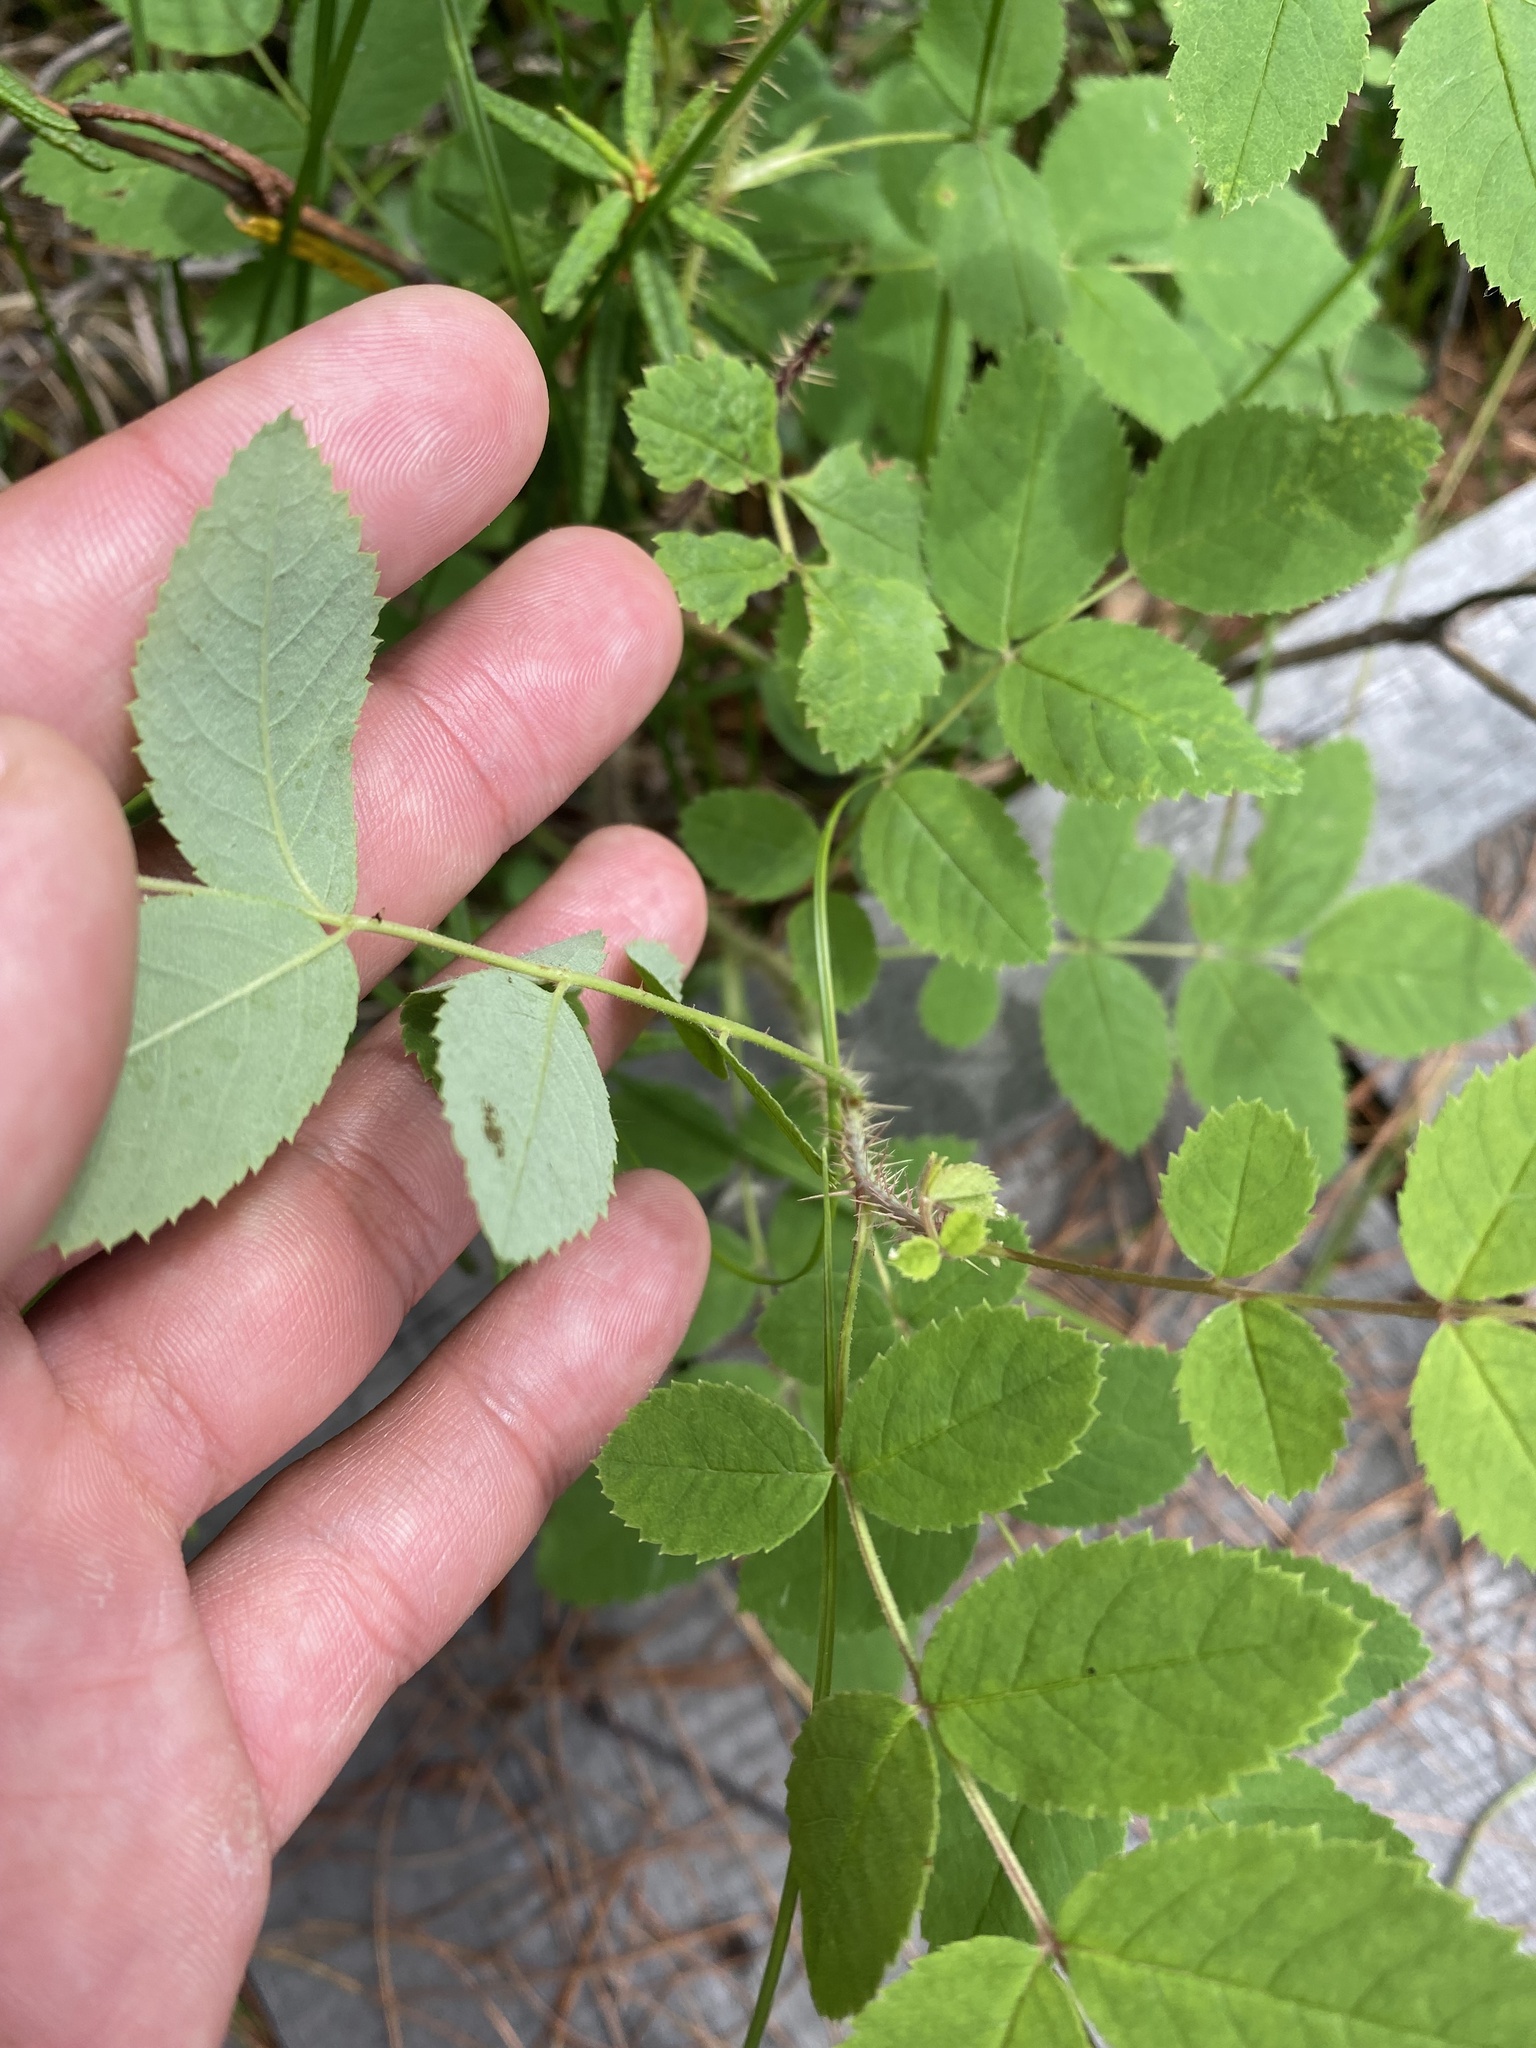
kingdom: Plantae
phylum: Tracheophyta
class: Magnoliopsida
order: Rosales
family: Rosaceae
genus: Rosa
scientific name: Rosa acicularis
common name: Prickly rose
